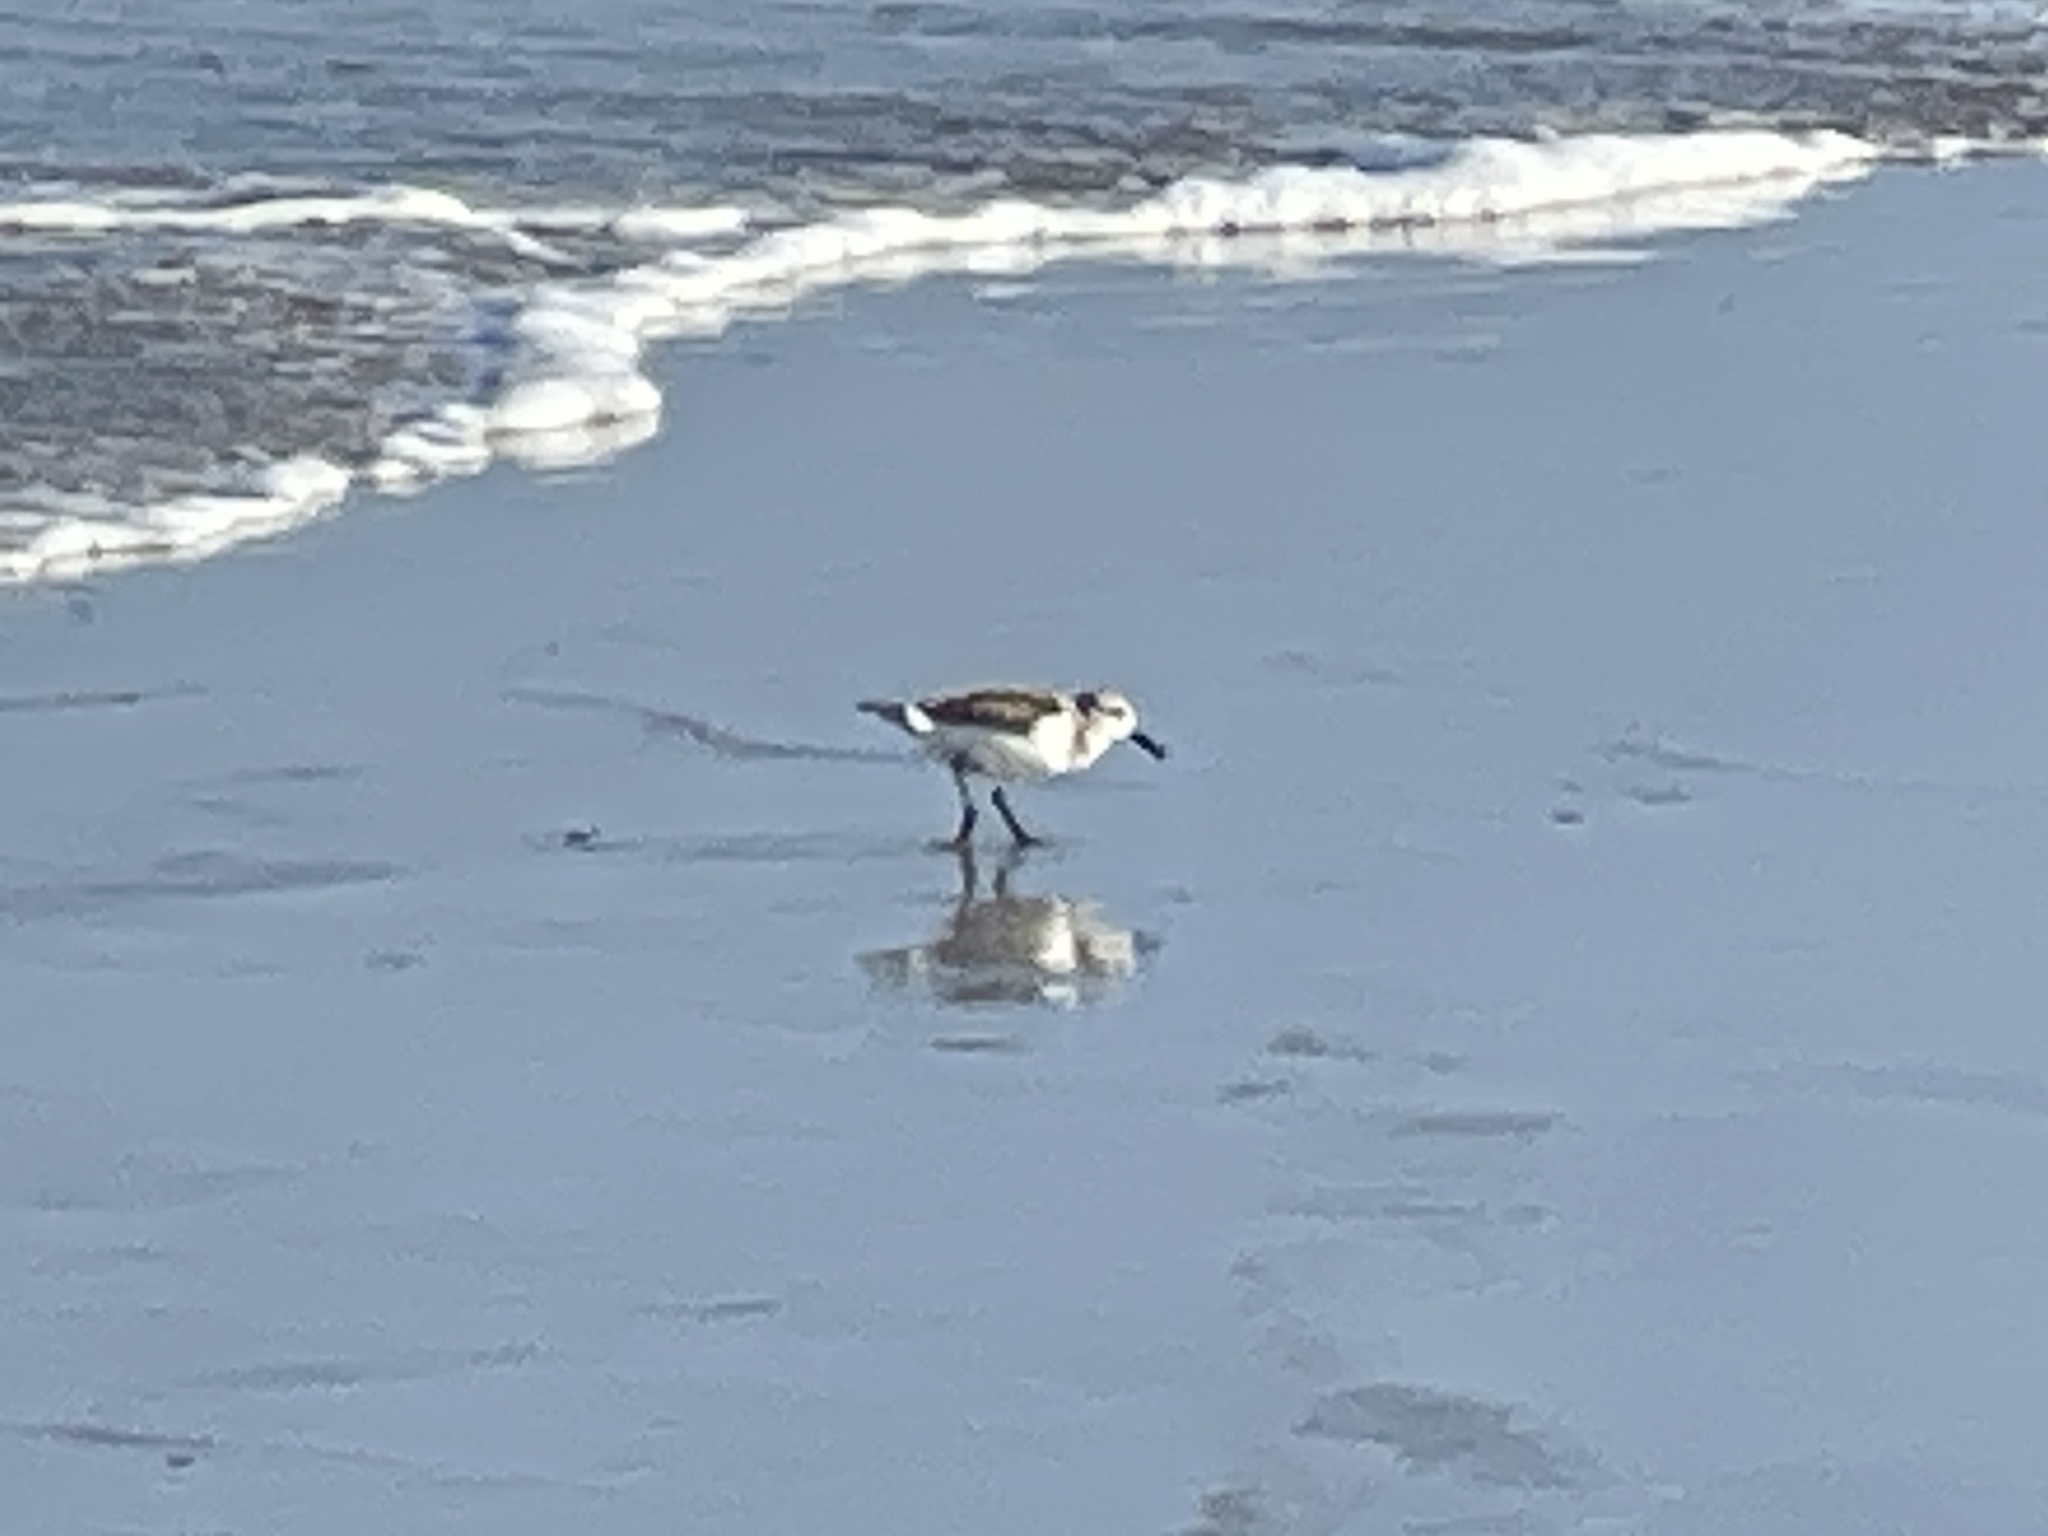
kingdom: Animalia
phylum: Chordata
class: Aves
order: Charadriiformes
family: Scolopacidae
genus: Calidris
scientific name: Calidris alba
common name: Sanderling
